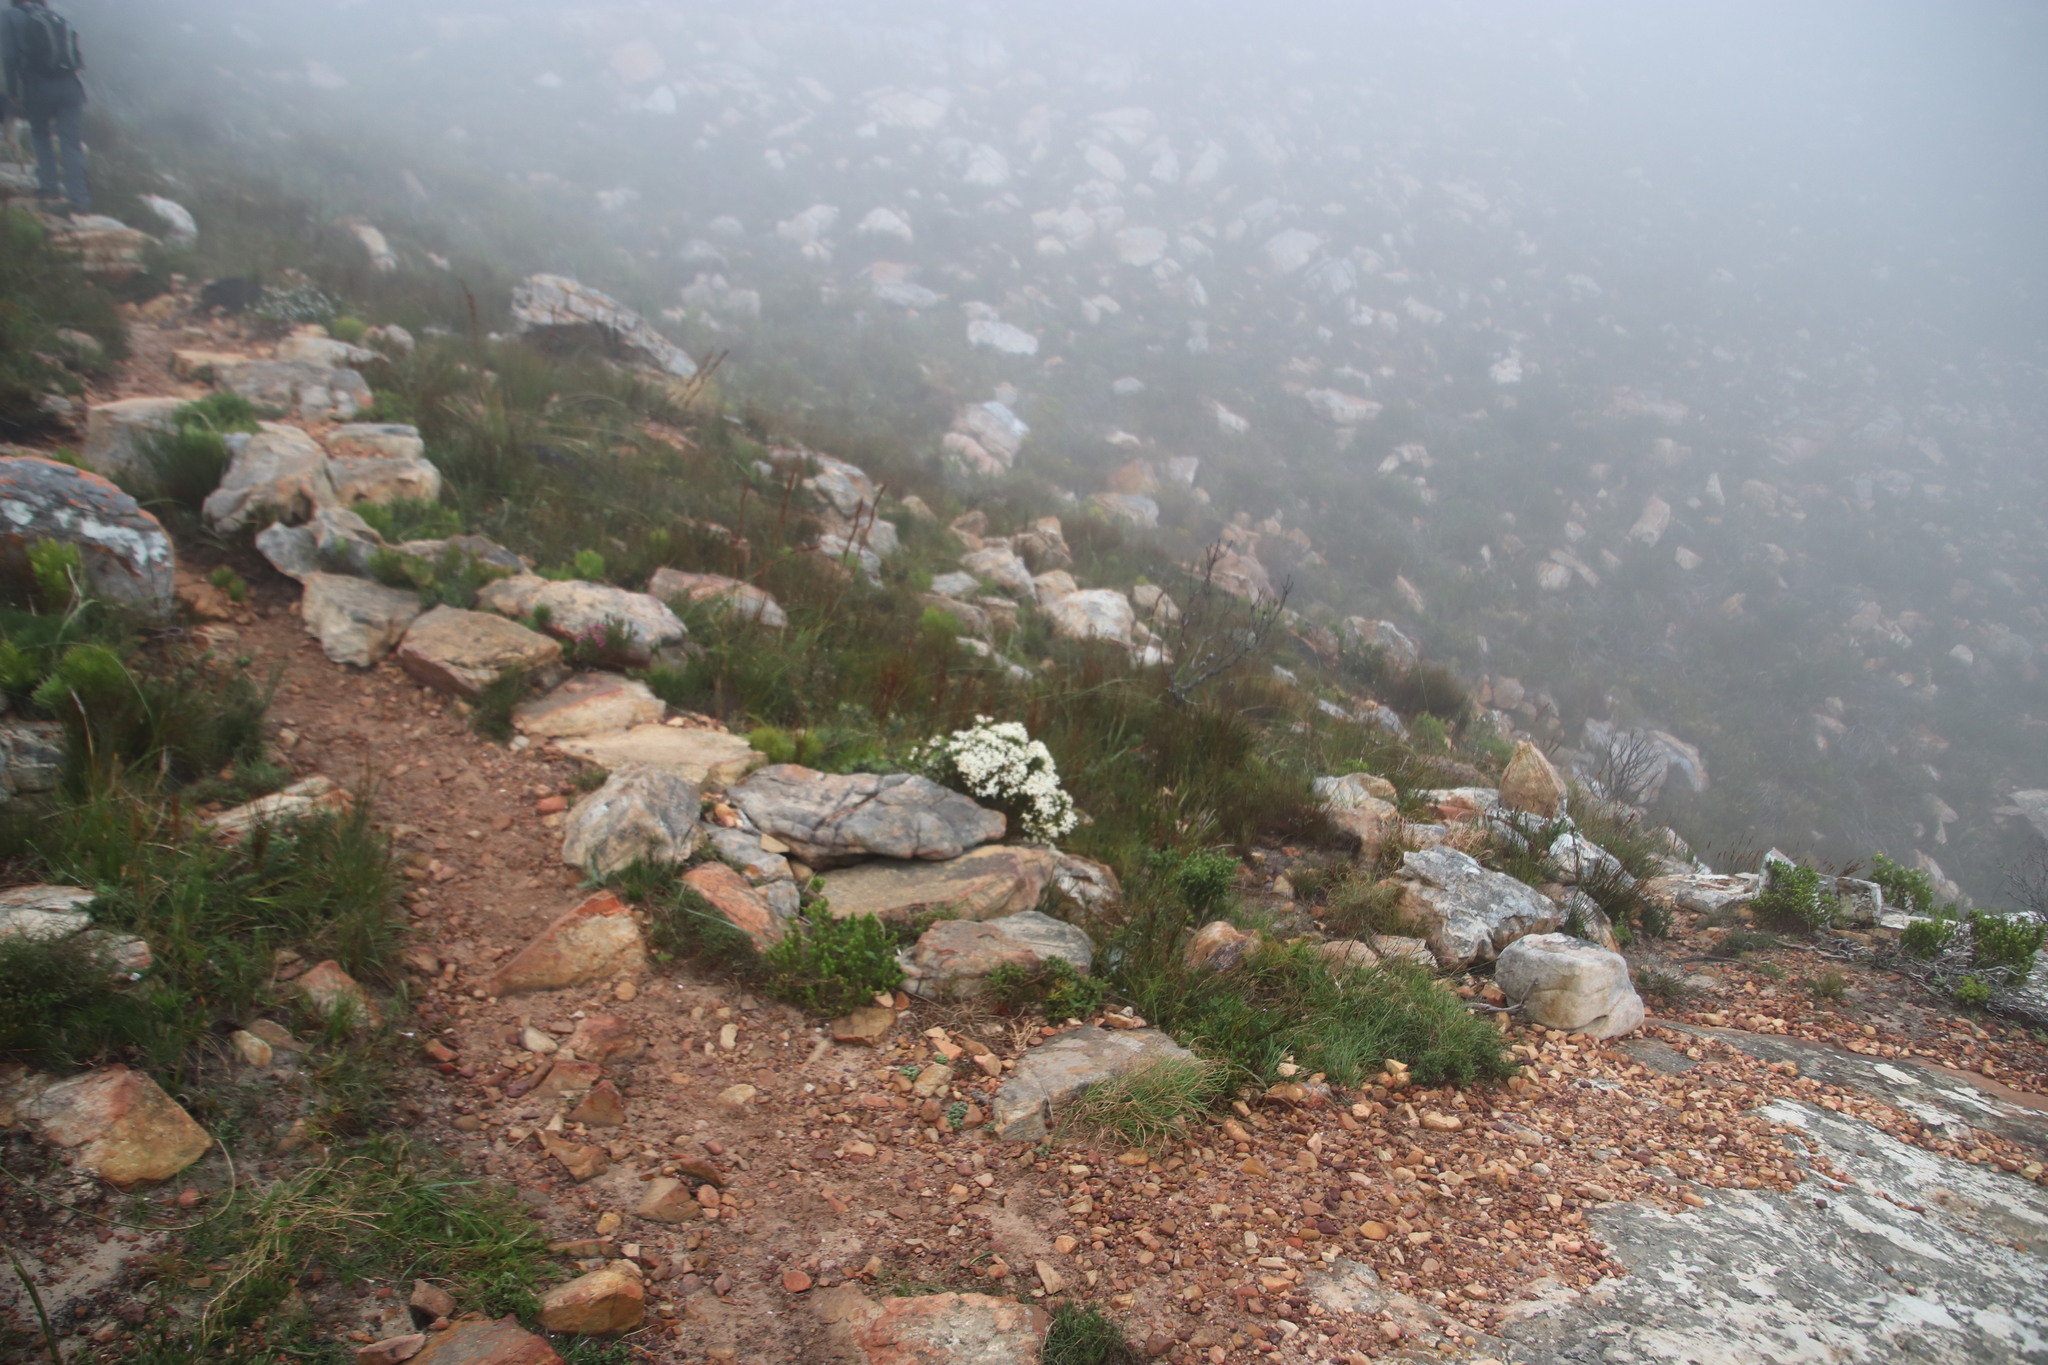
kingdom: Plantae
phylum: Tracheophyta
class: Magnoliopsida
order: Malvales
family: Thymelaeaceae
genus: Gnidia
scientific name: Gnidia pinifolia
